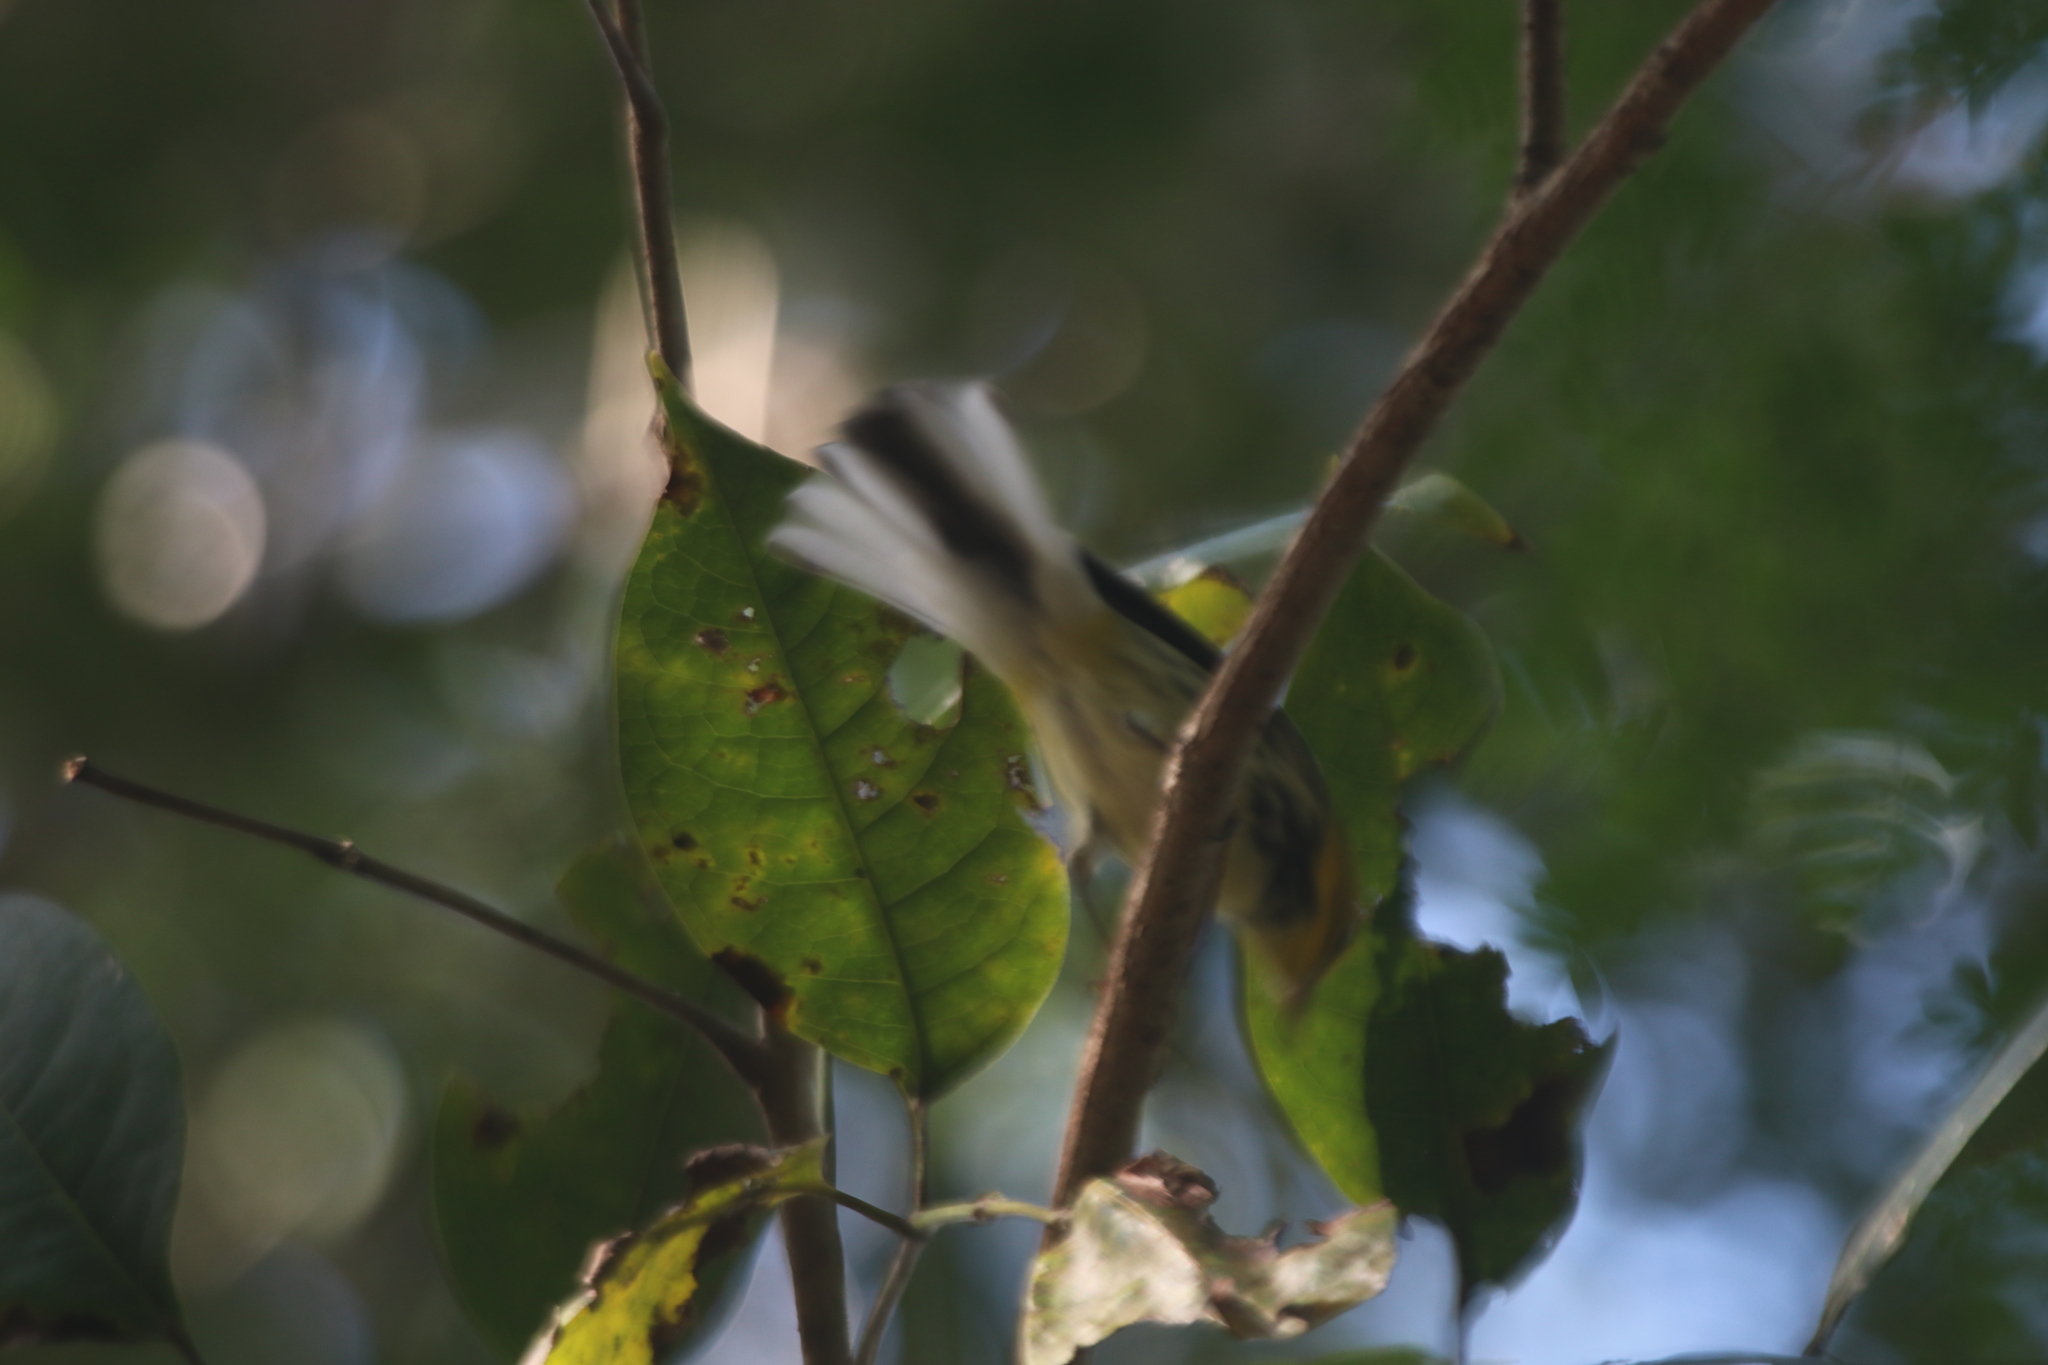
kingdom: Animalia
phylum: Chordata
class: Aves
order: Passeriformes
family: Parulidae
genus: Setophaga
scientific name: Setophaga virens
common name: Black-throated green warbler
